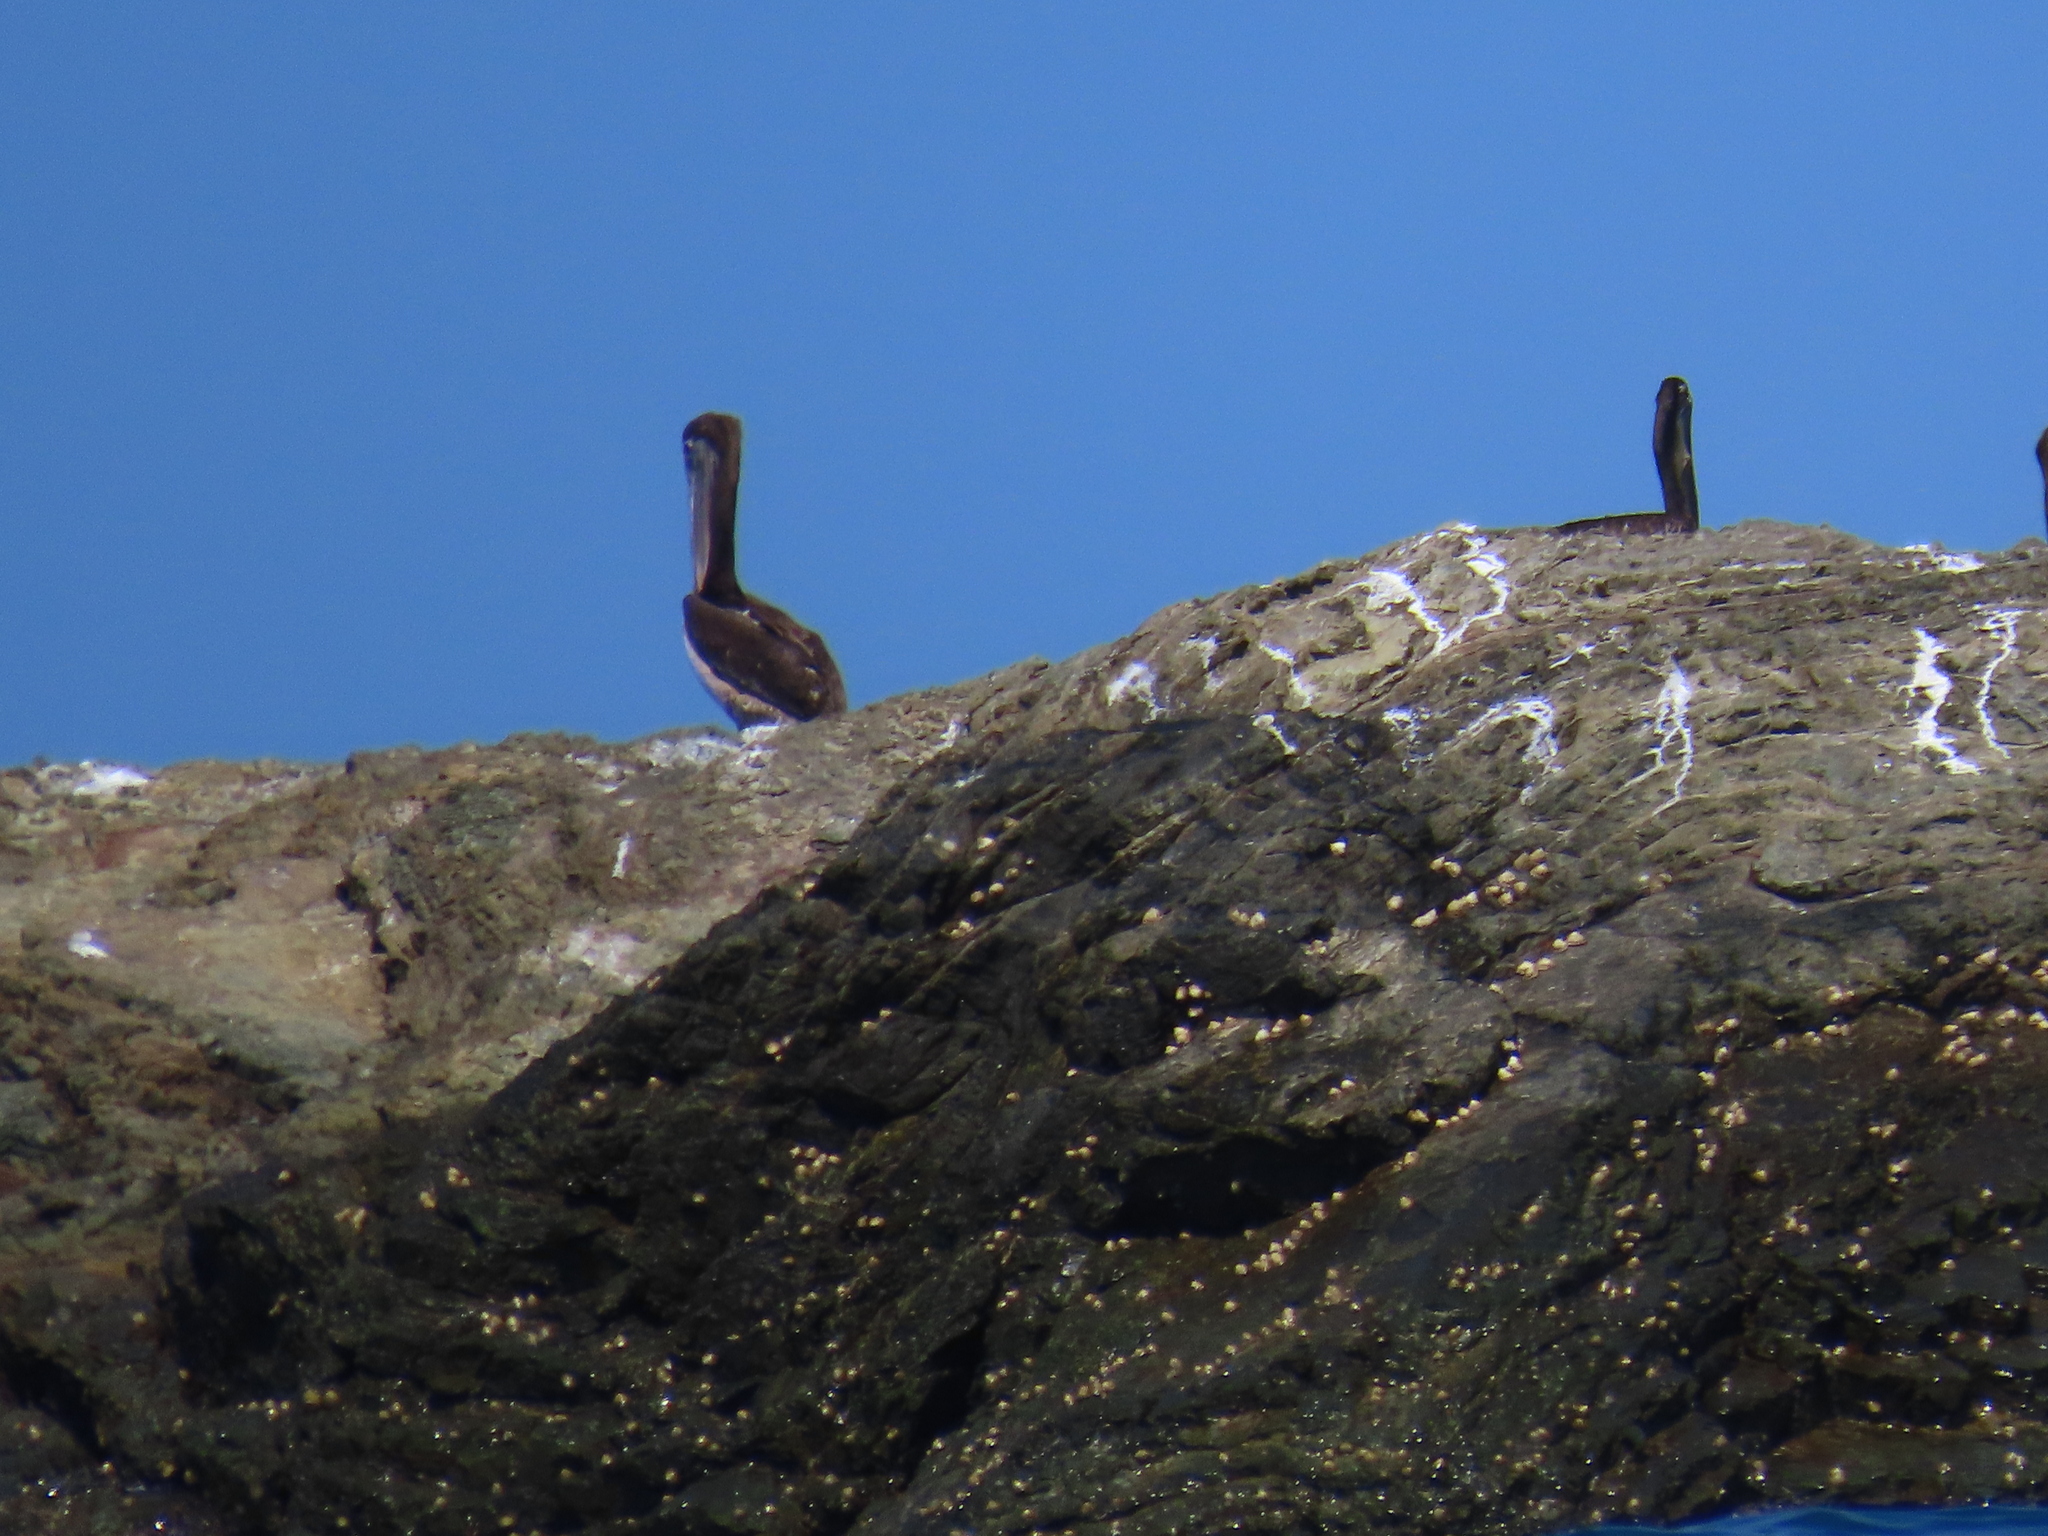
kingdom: Animalia
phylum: Chordata
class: Aves
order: Pelecaniformes
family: Pelecanidae
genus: Pelecanus
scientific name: Pelecanus occidentalis
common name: Brown pelican
